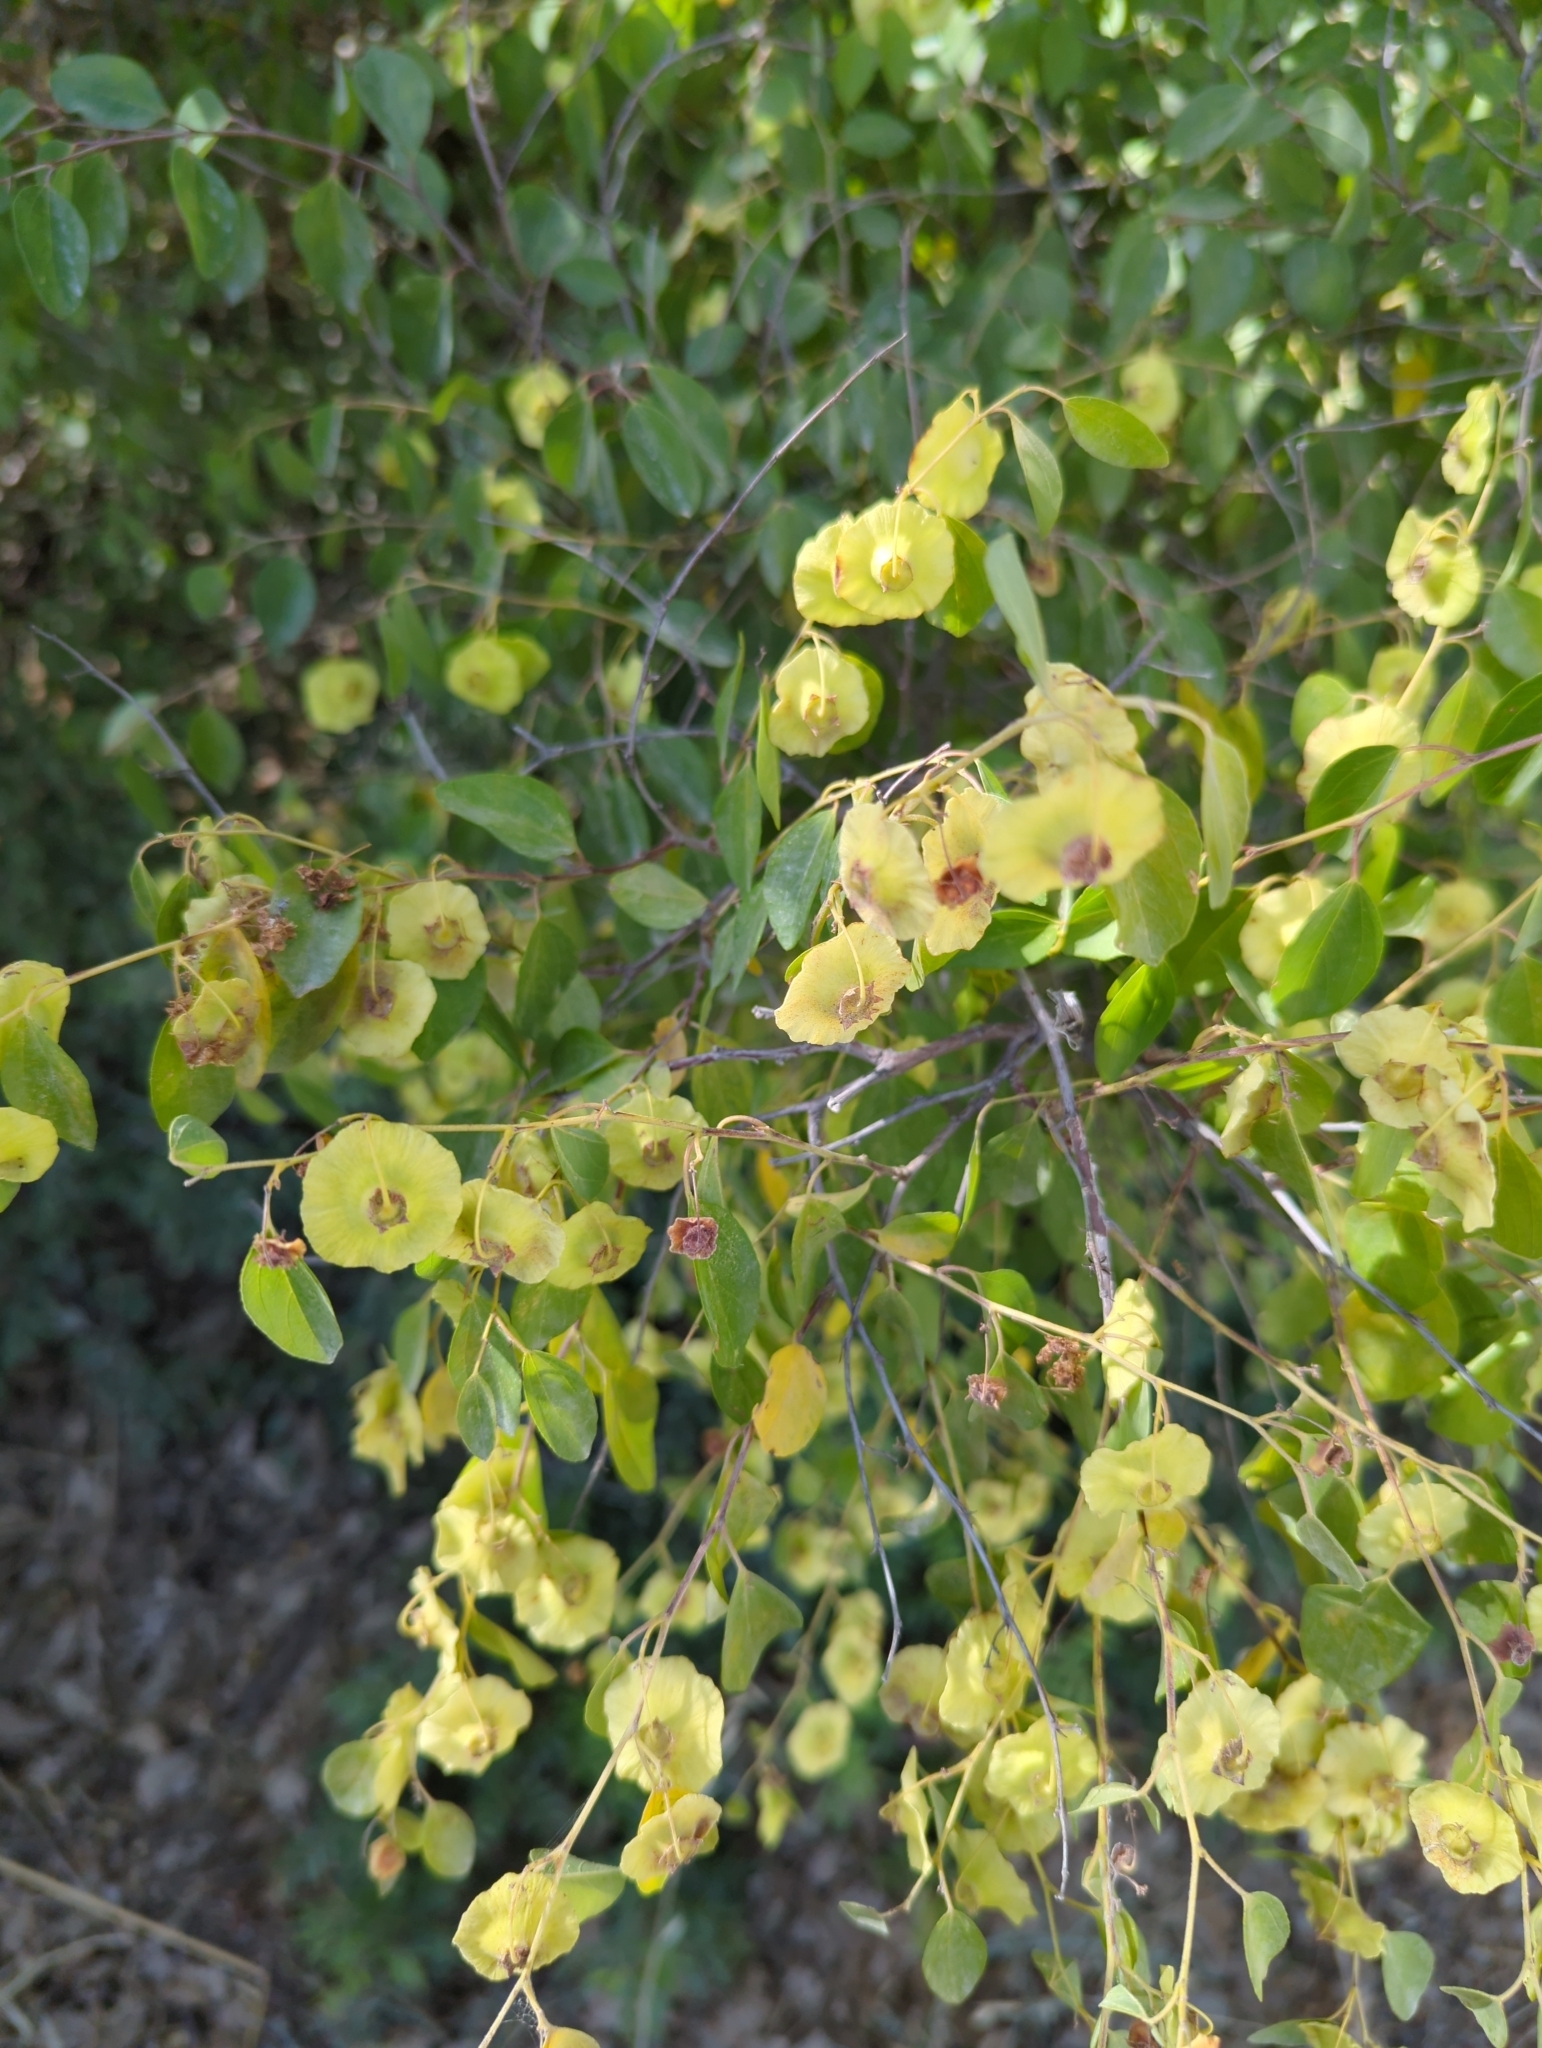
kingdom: Plantae
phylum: Tracheophyta
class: Magnoliopsida
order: Rosales
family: Rhamnaceae
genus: Paliurus
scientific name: Paliurus spina-christi
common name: Jeruselem thorn
